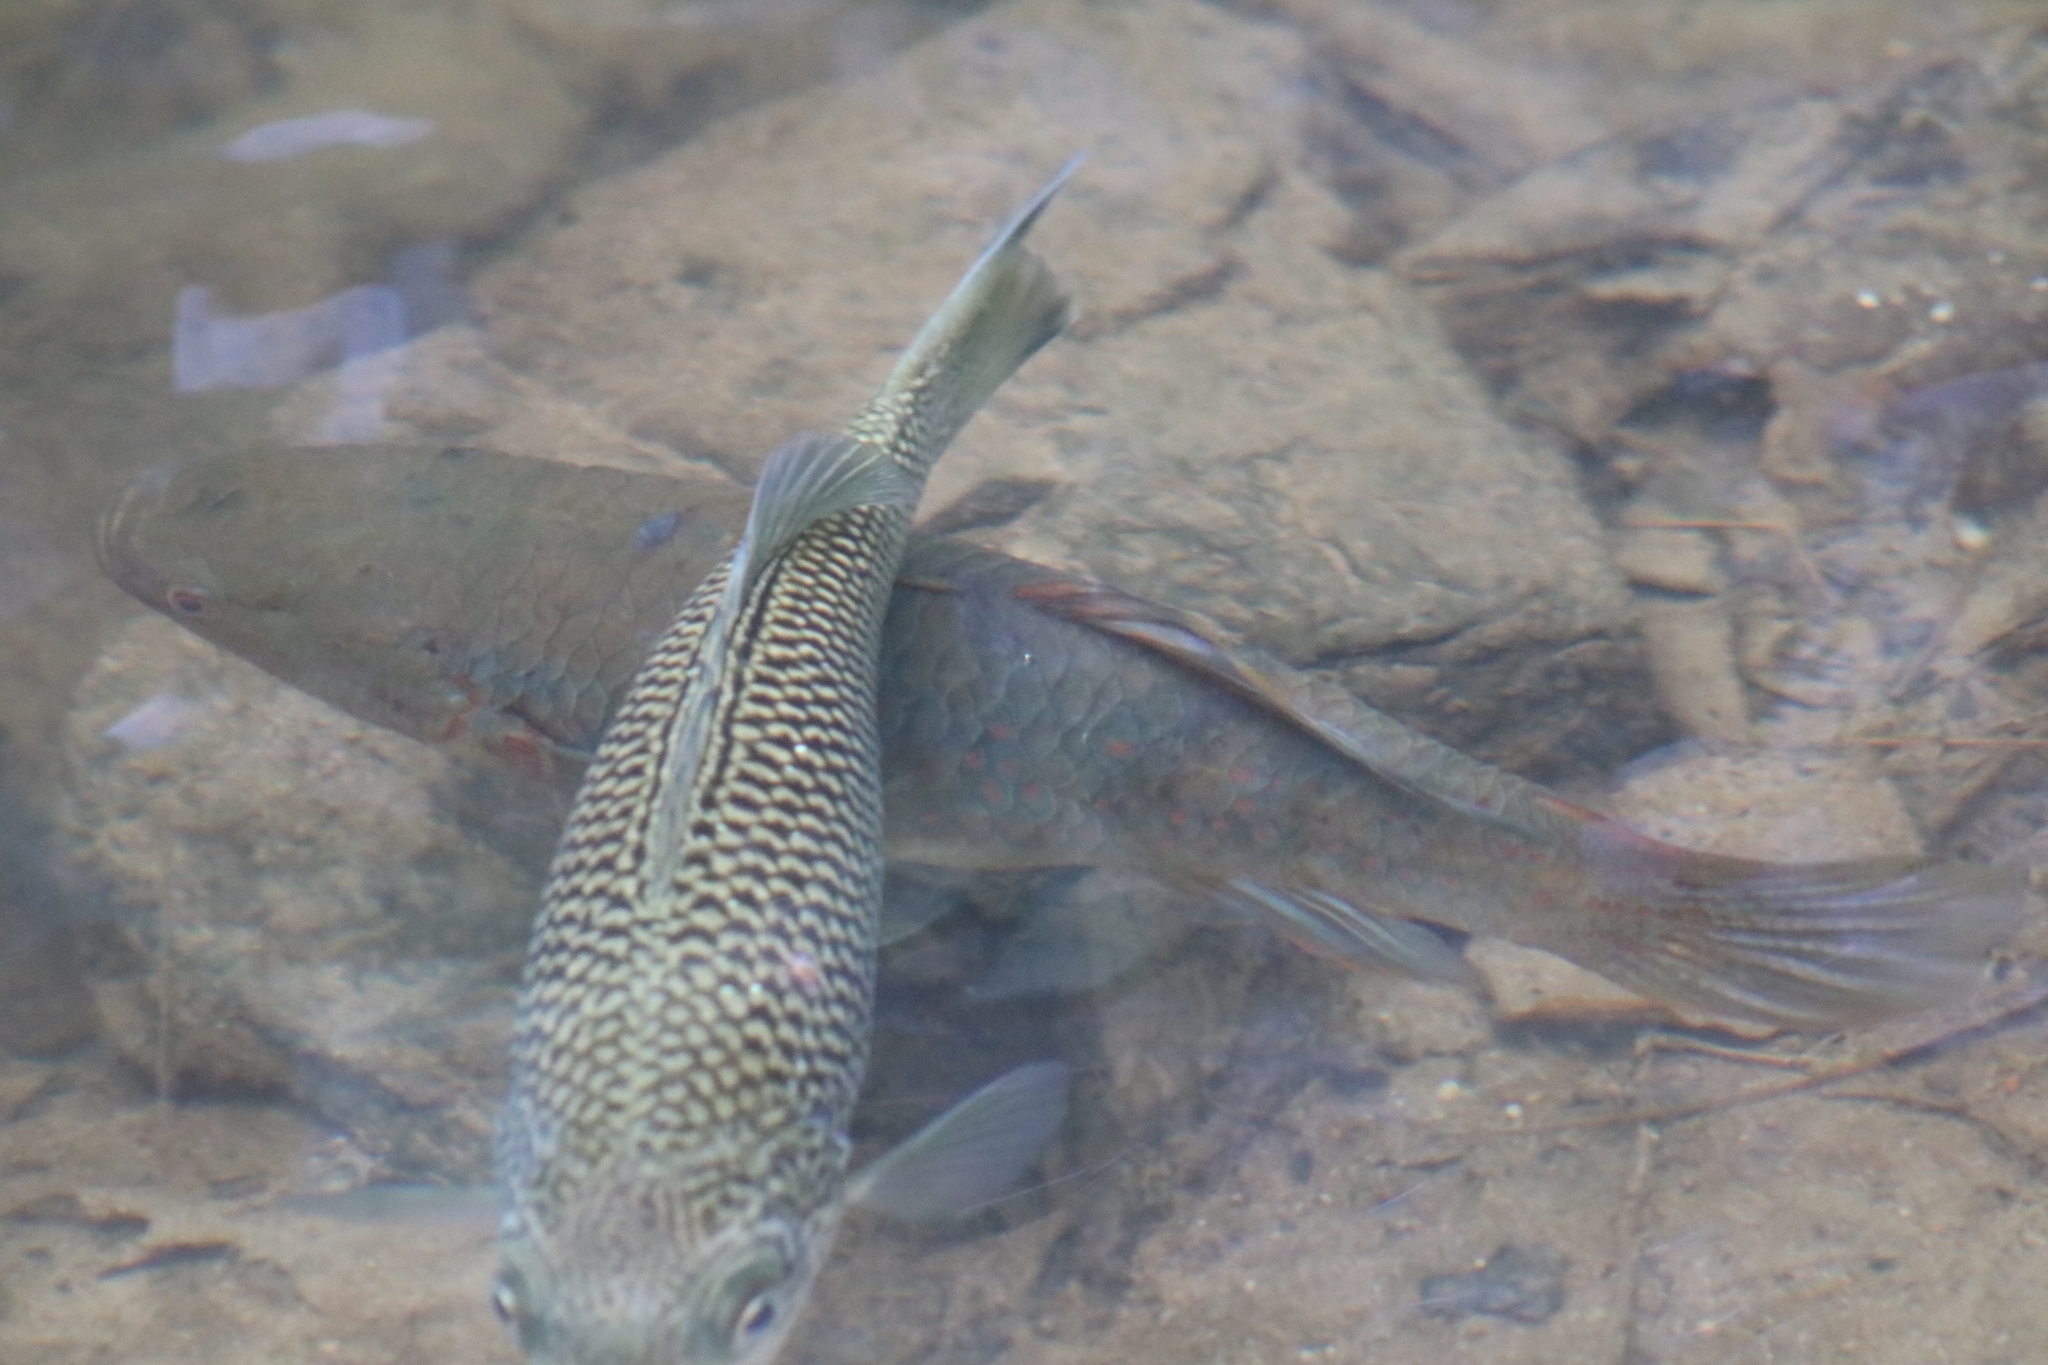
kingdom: Animalia
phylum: Chordata
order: Perciformes
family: Eleotridae
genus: Giuris
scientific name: Giuris
